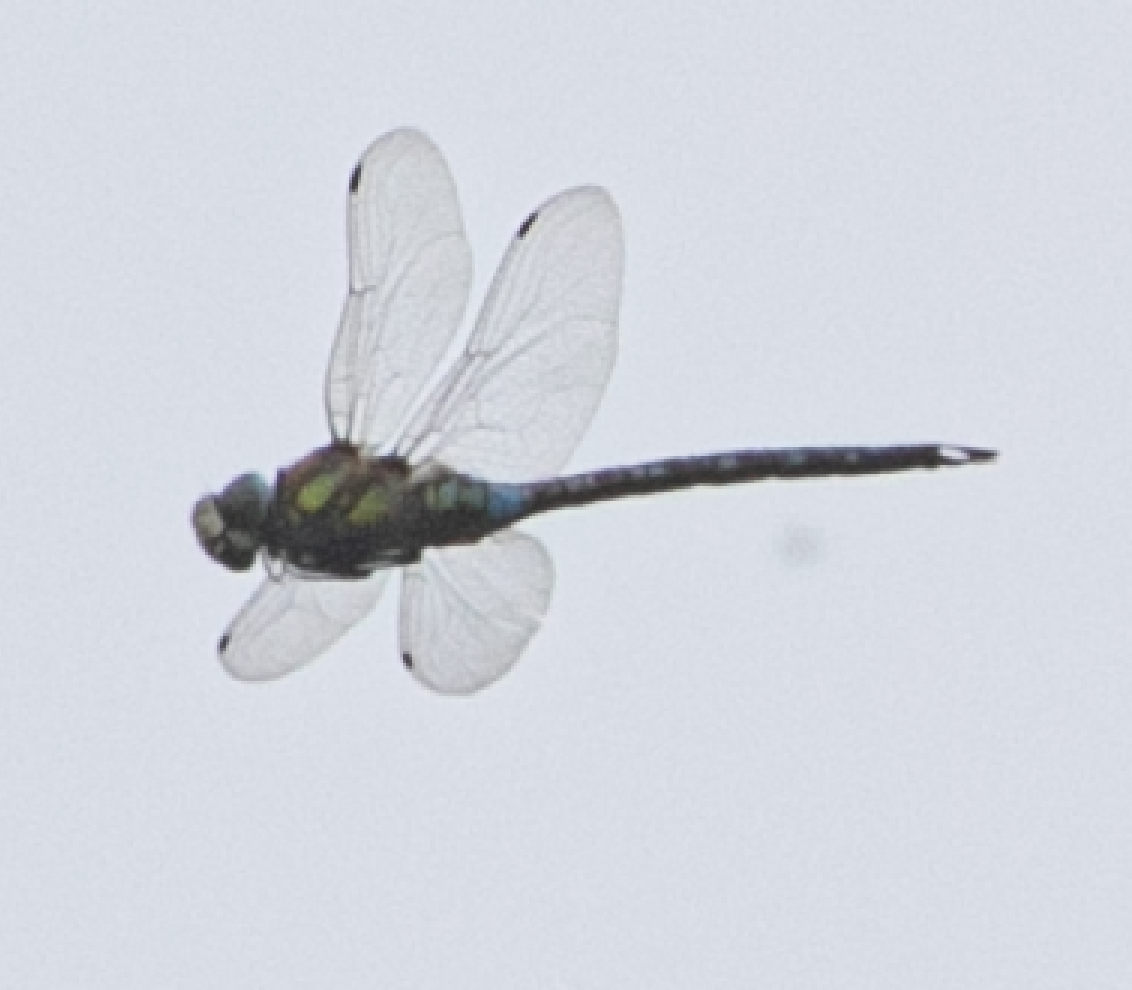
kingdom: Animalia
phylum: Arthropoda
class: Insecta
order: Odonata
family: Aeshnidae
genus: Aeshna
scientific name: Aeshna mixta
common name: Migrant hawker
